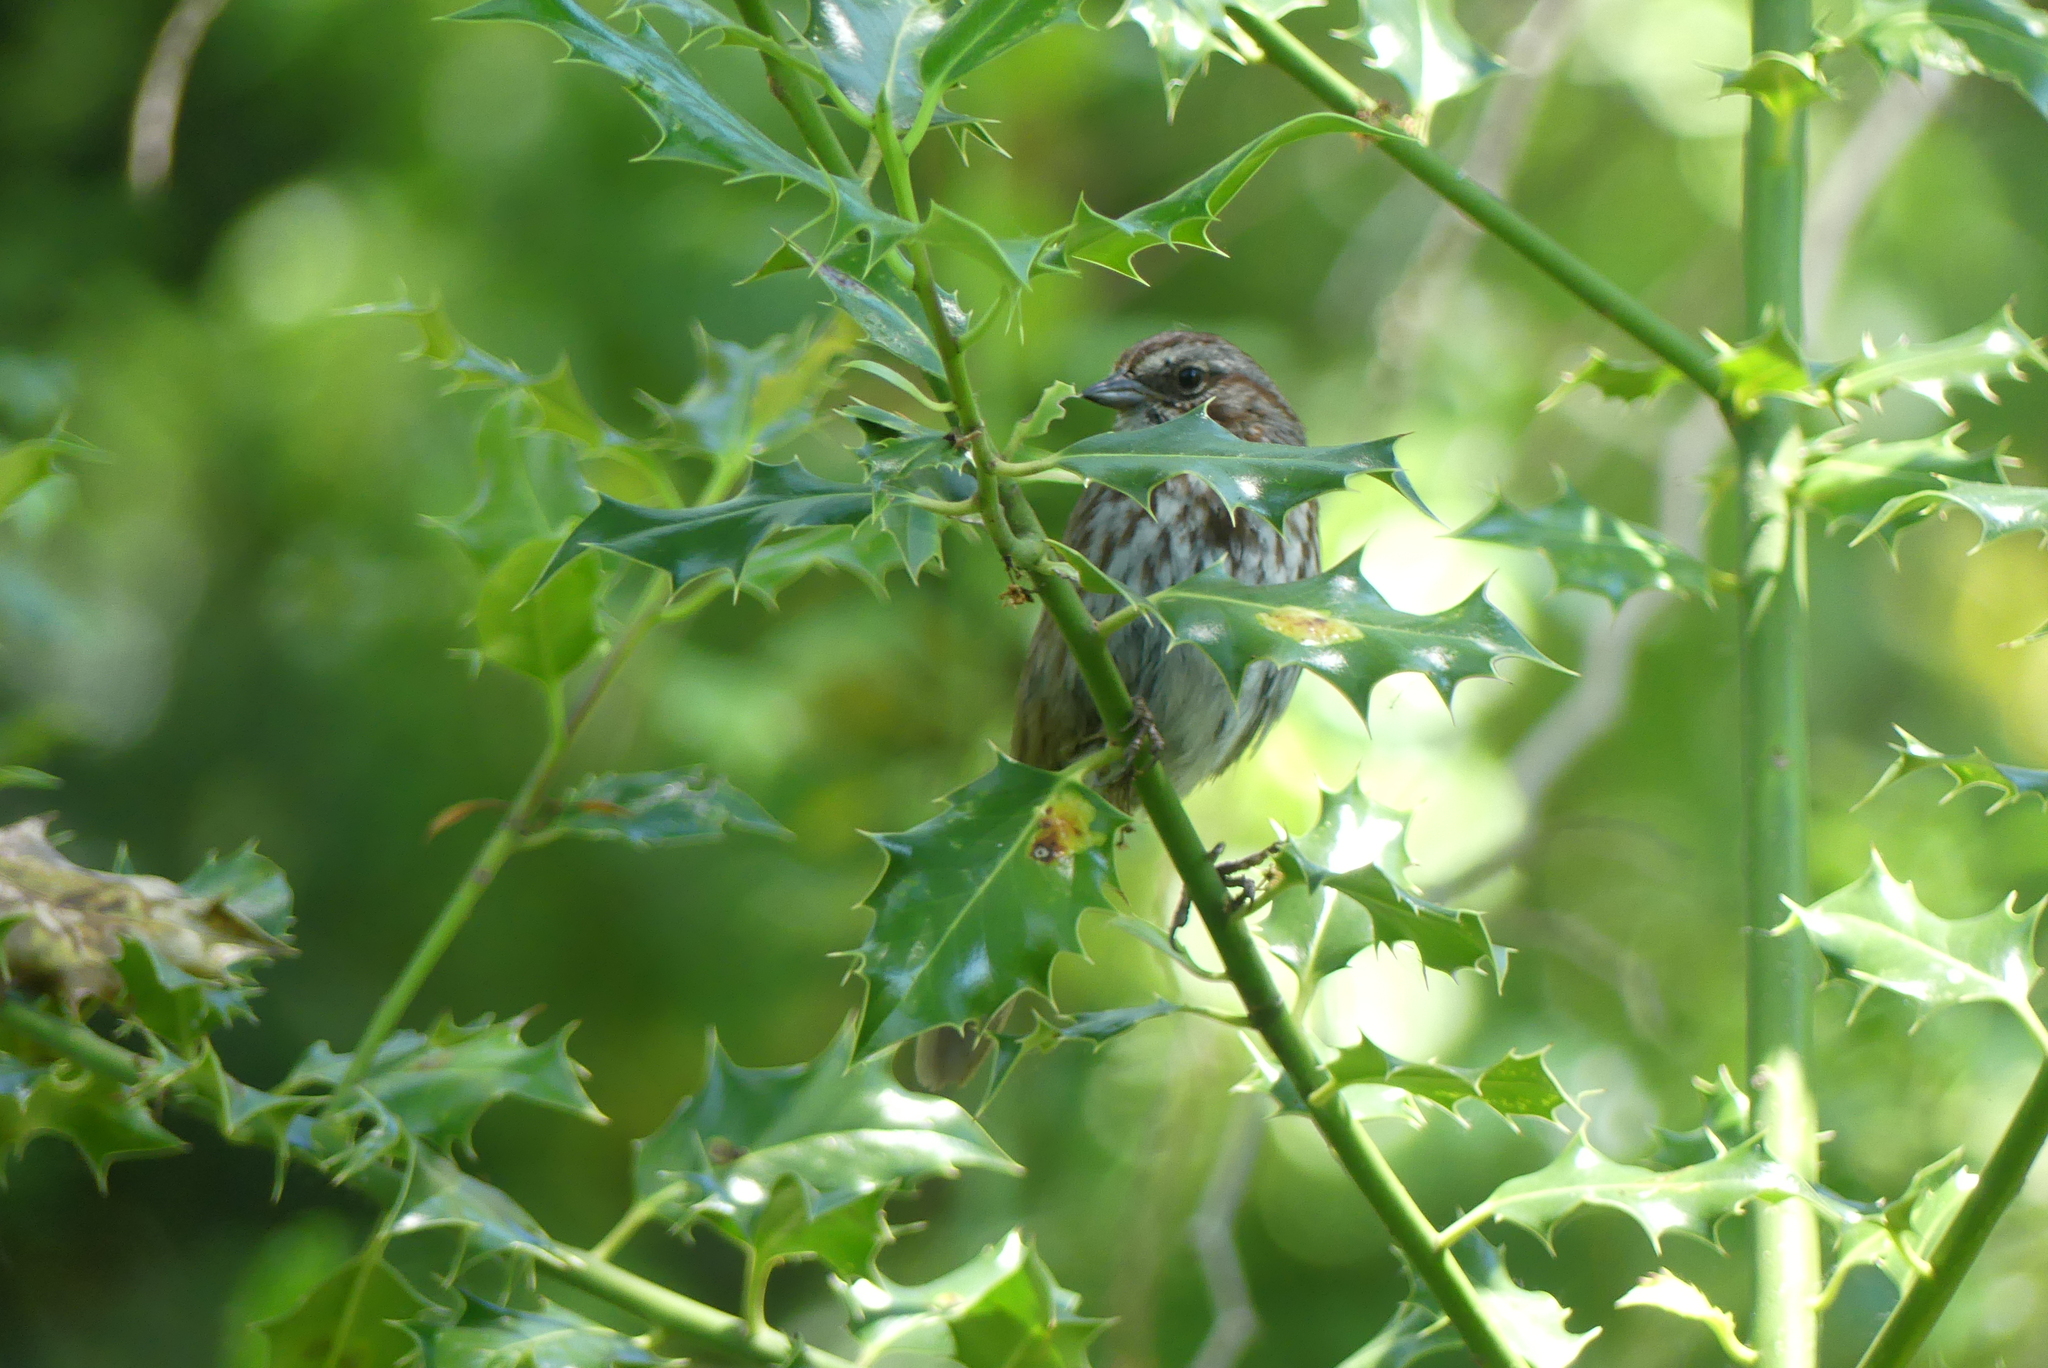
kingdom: Animalia
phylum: Chordata
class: Aves
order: Passeriformes
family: Passerellidae
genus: Melospiza
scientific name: Melospiza melodia
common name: Song sparrow
